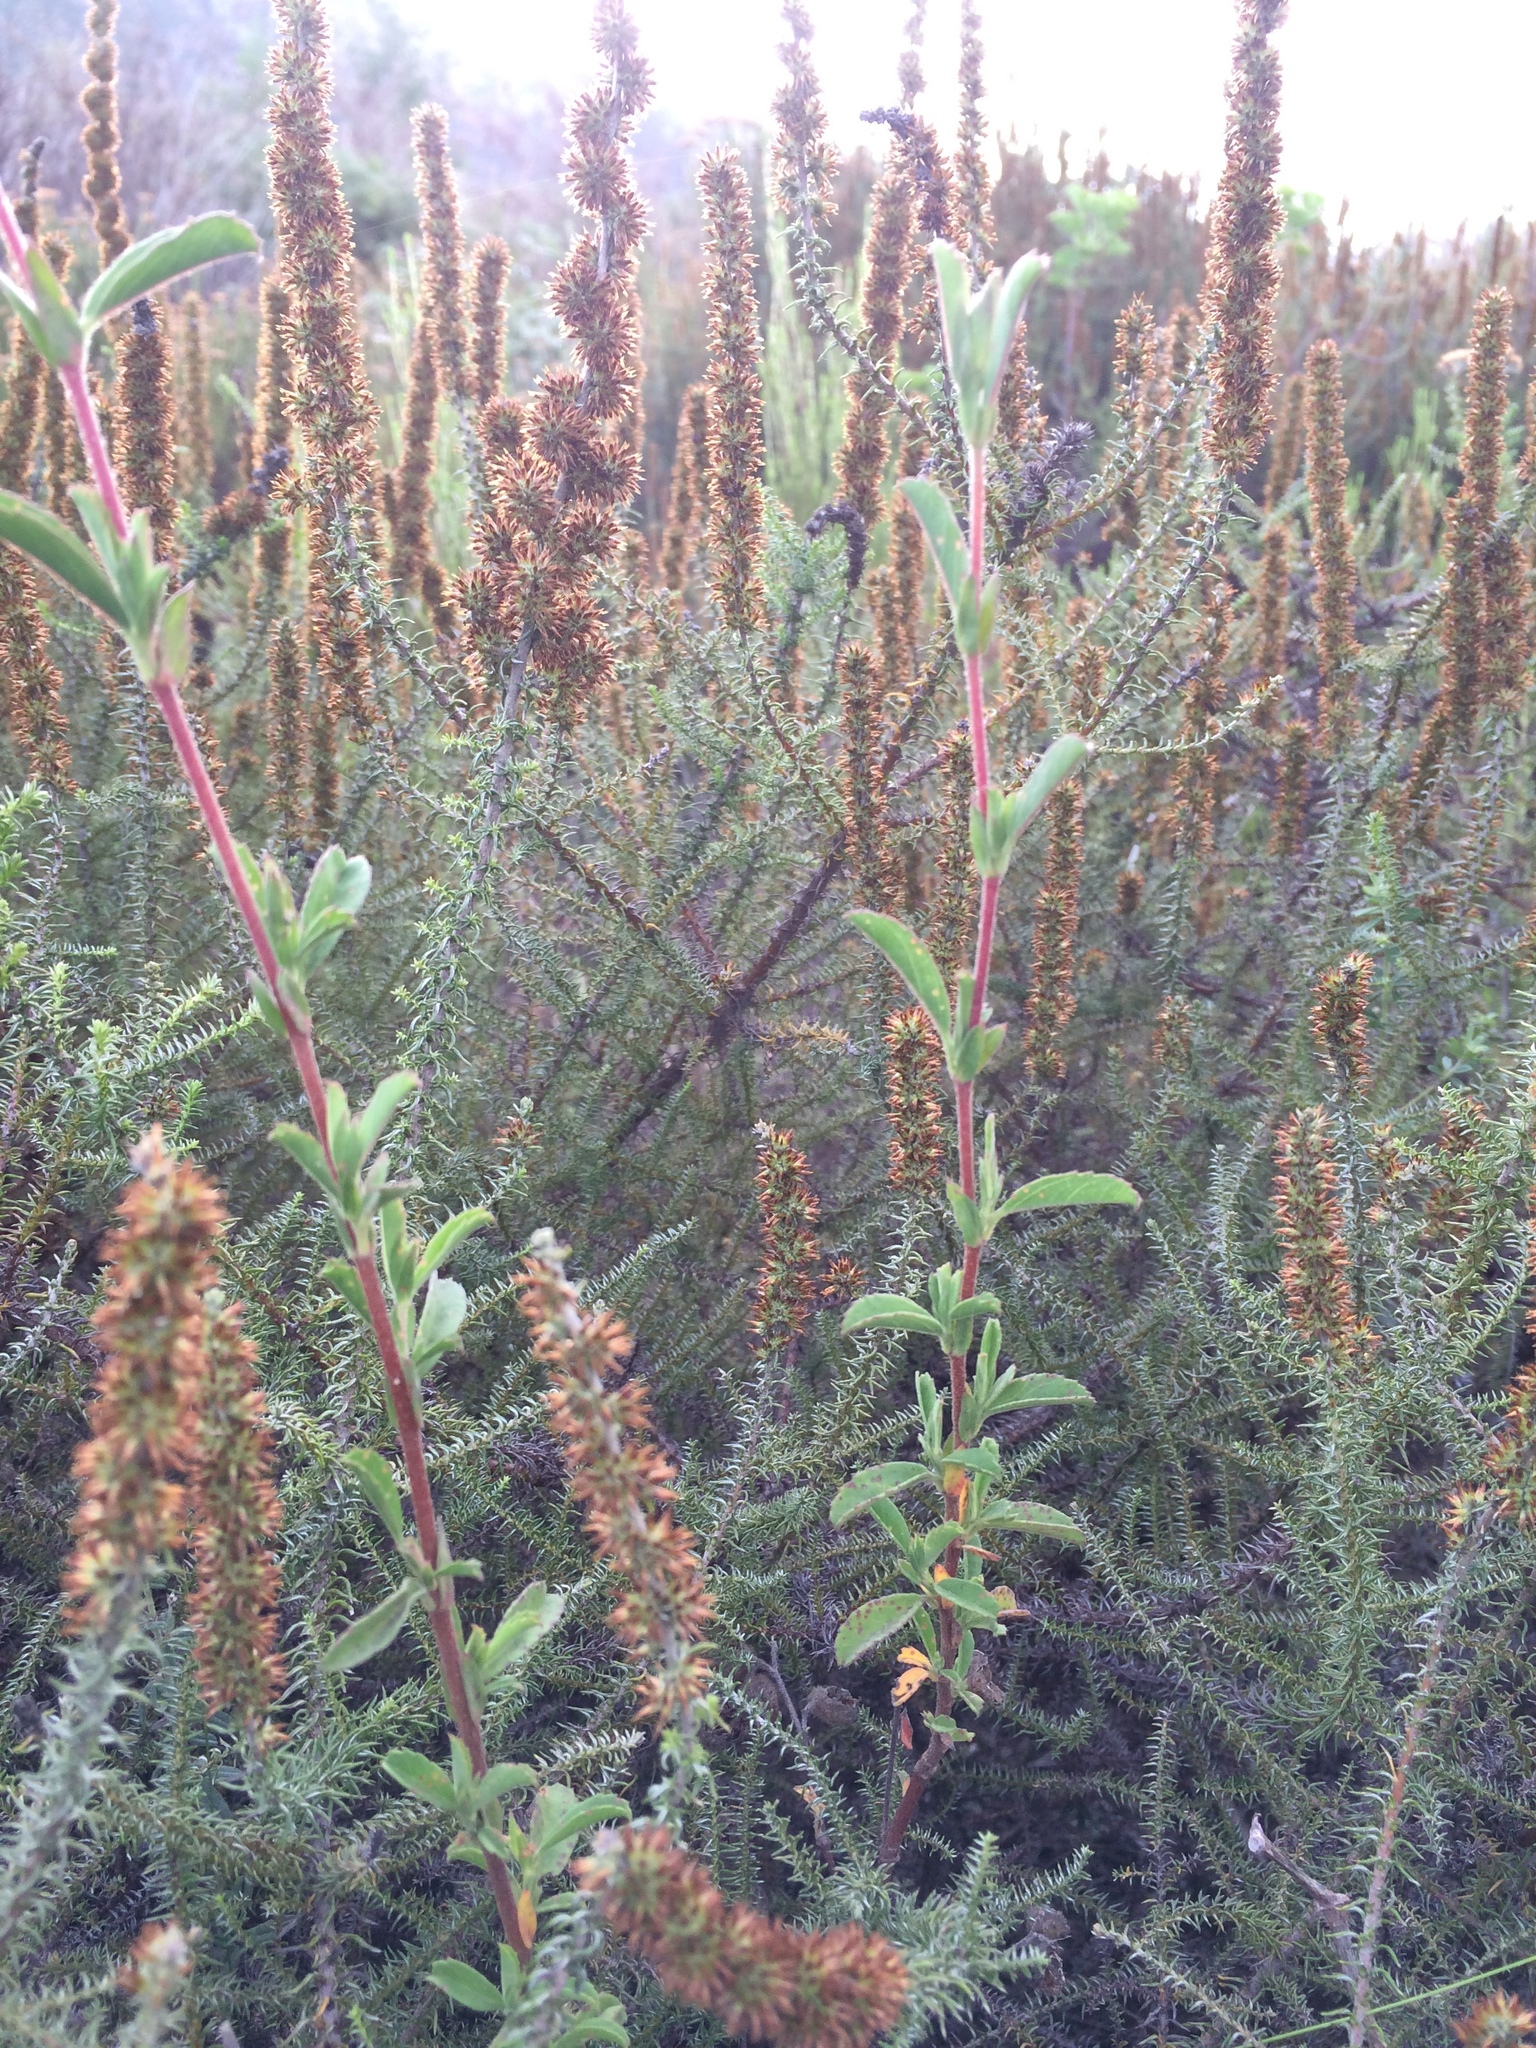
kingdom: Plantae
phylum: Tracheophyta
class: Magnoliopsida
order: Malvales
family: Malvaceae
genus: Hermannia
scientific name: Hermannia hyssopifolia
